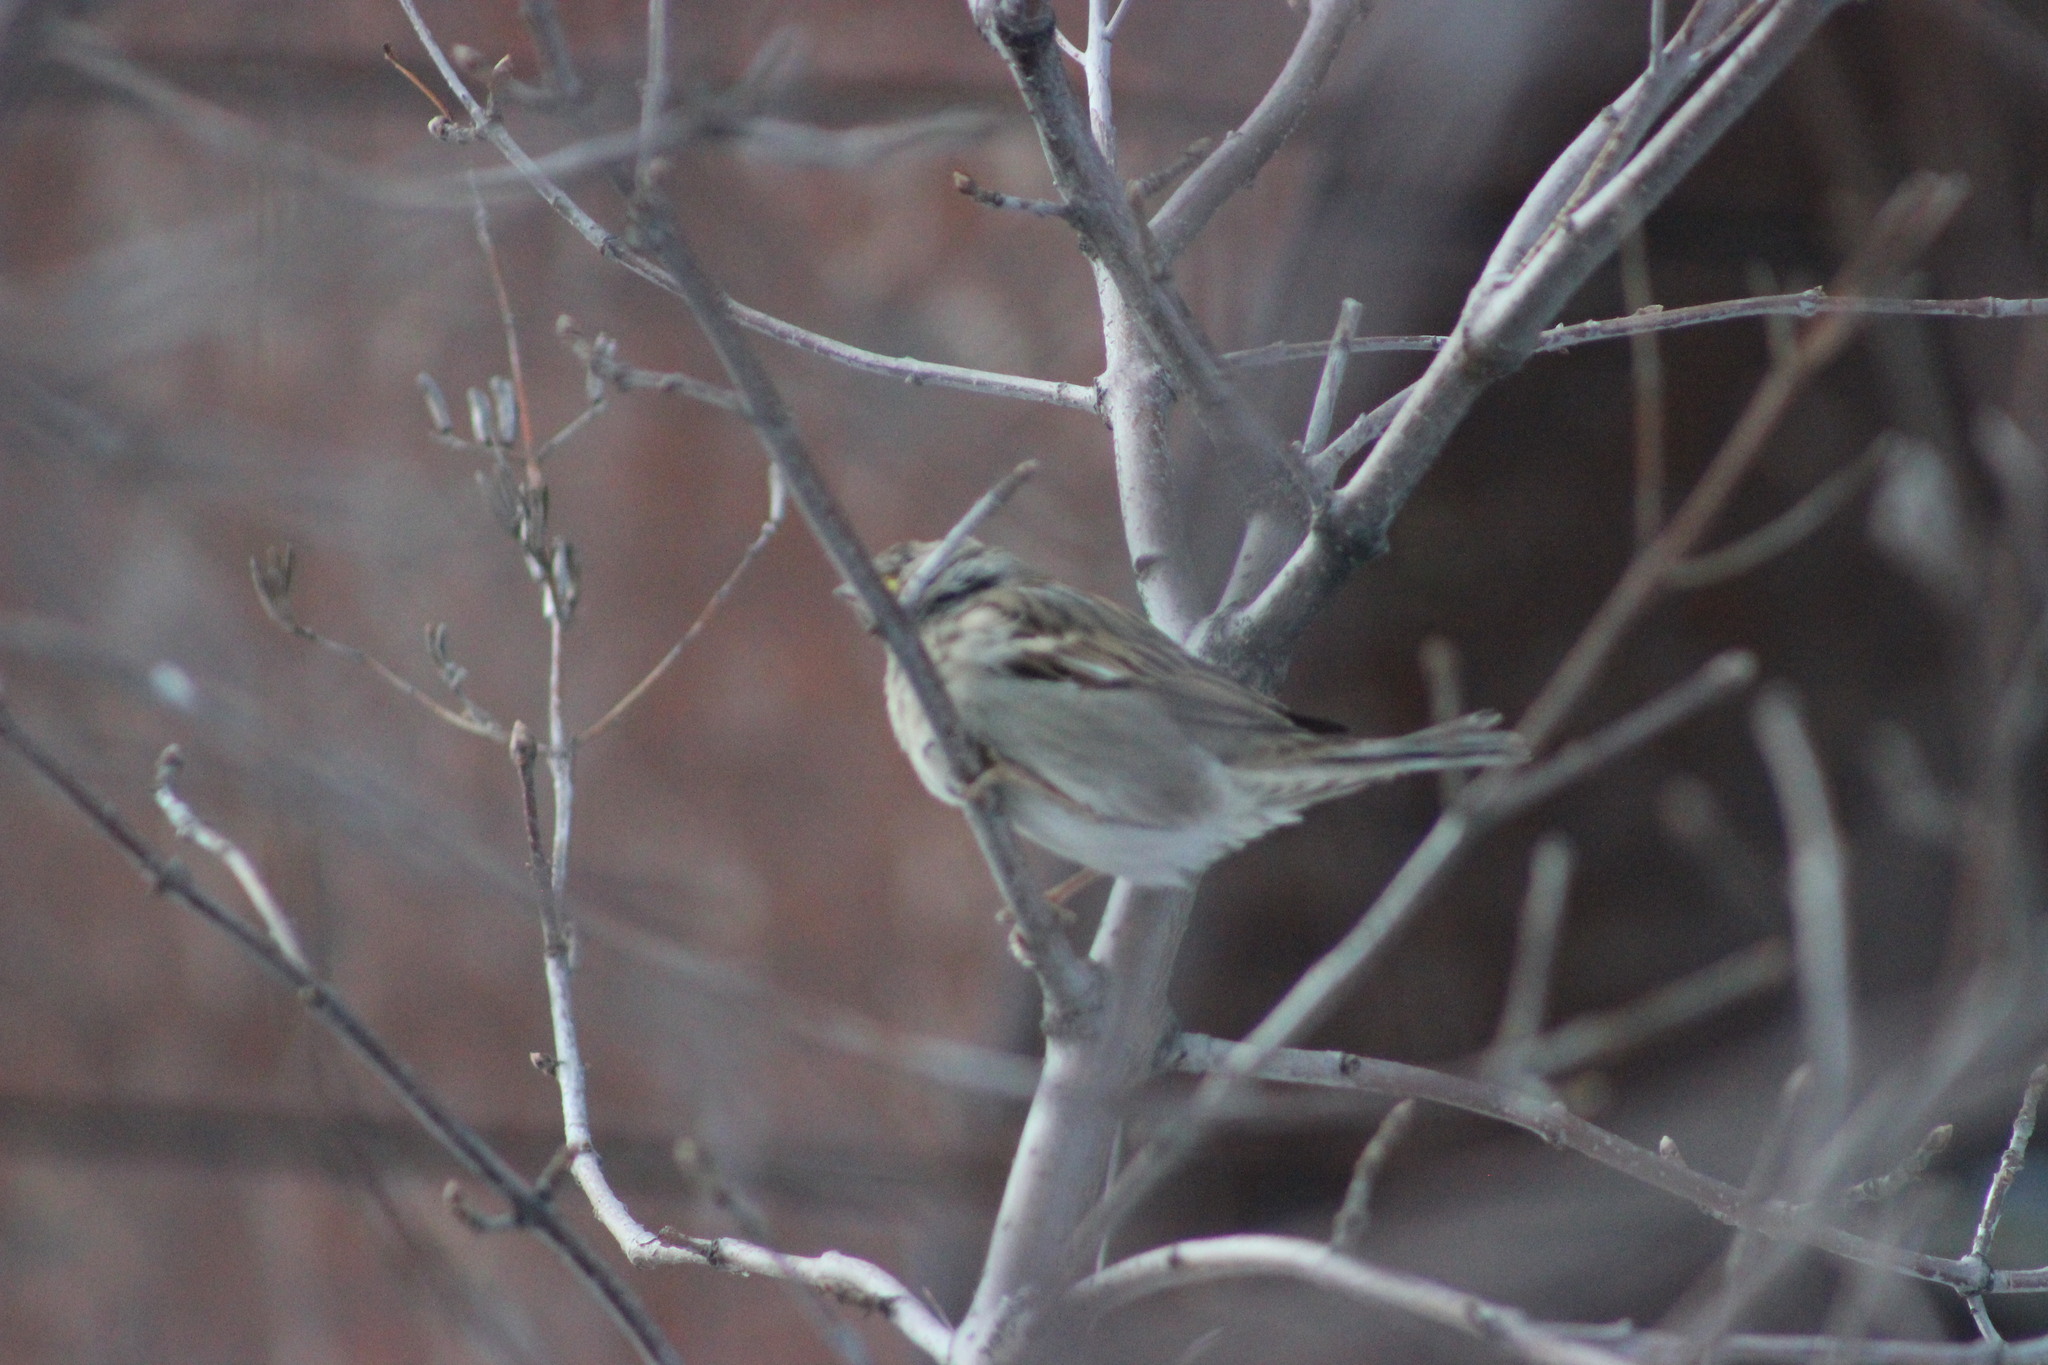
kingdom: Animalia
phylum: Chordata
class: Aves
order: Passeriformes
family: Passeridae
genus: Passer
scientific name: Passer domesticus
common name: House sparrow
